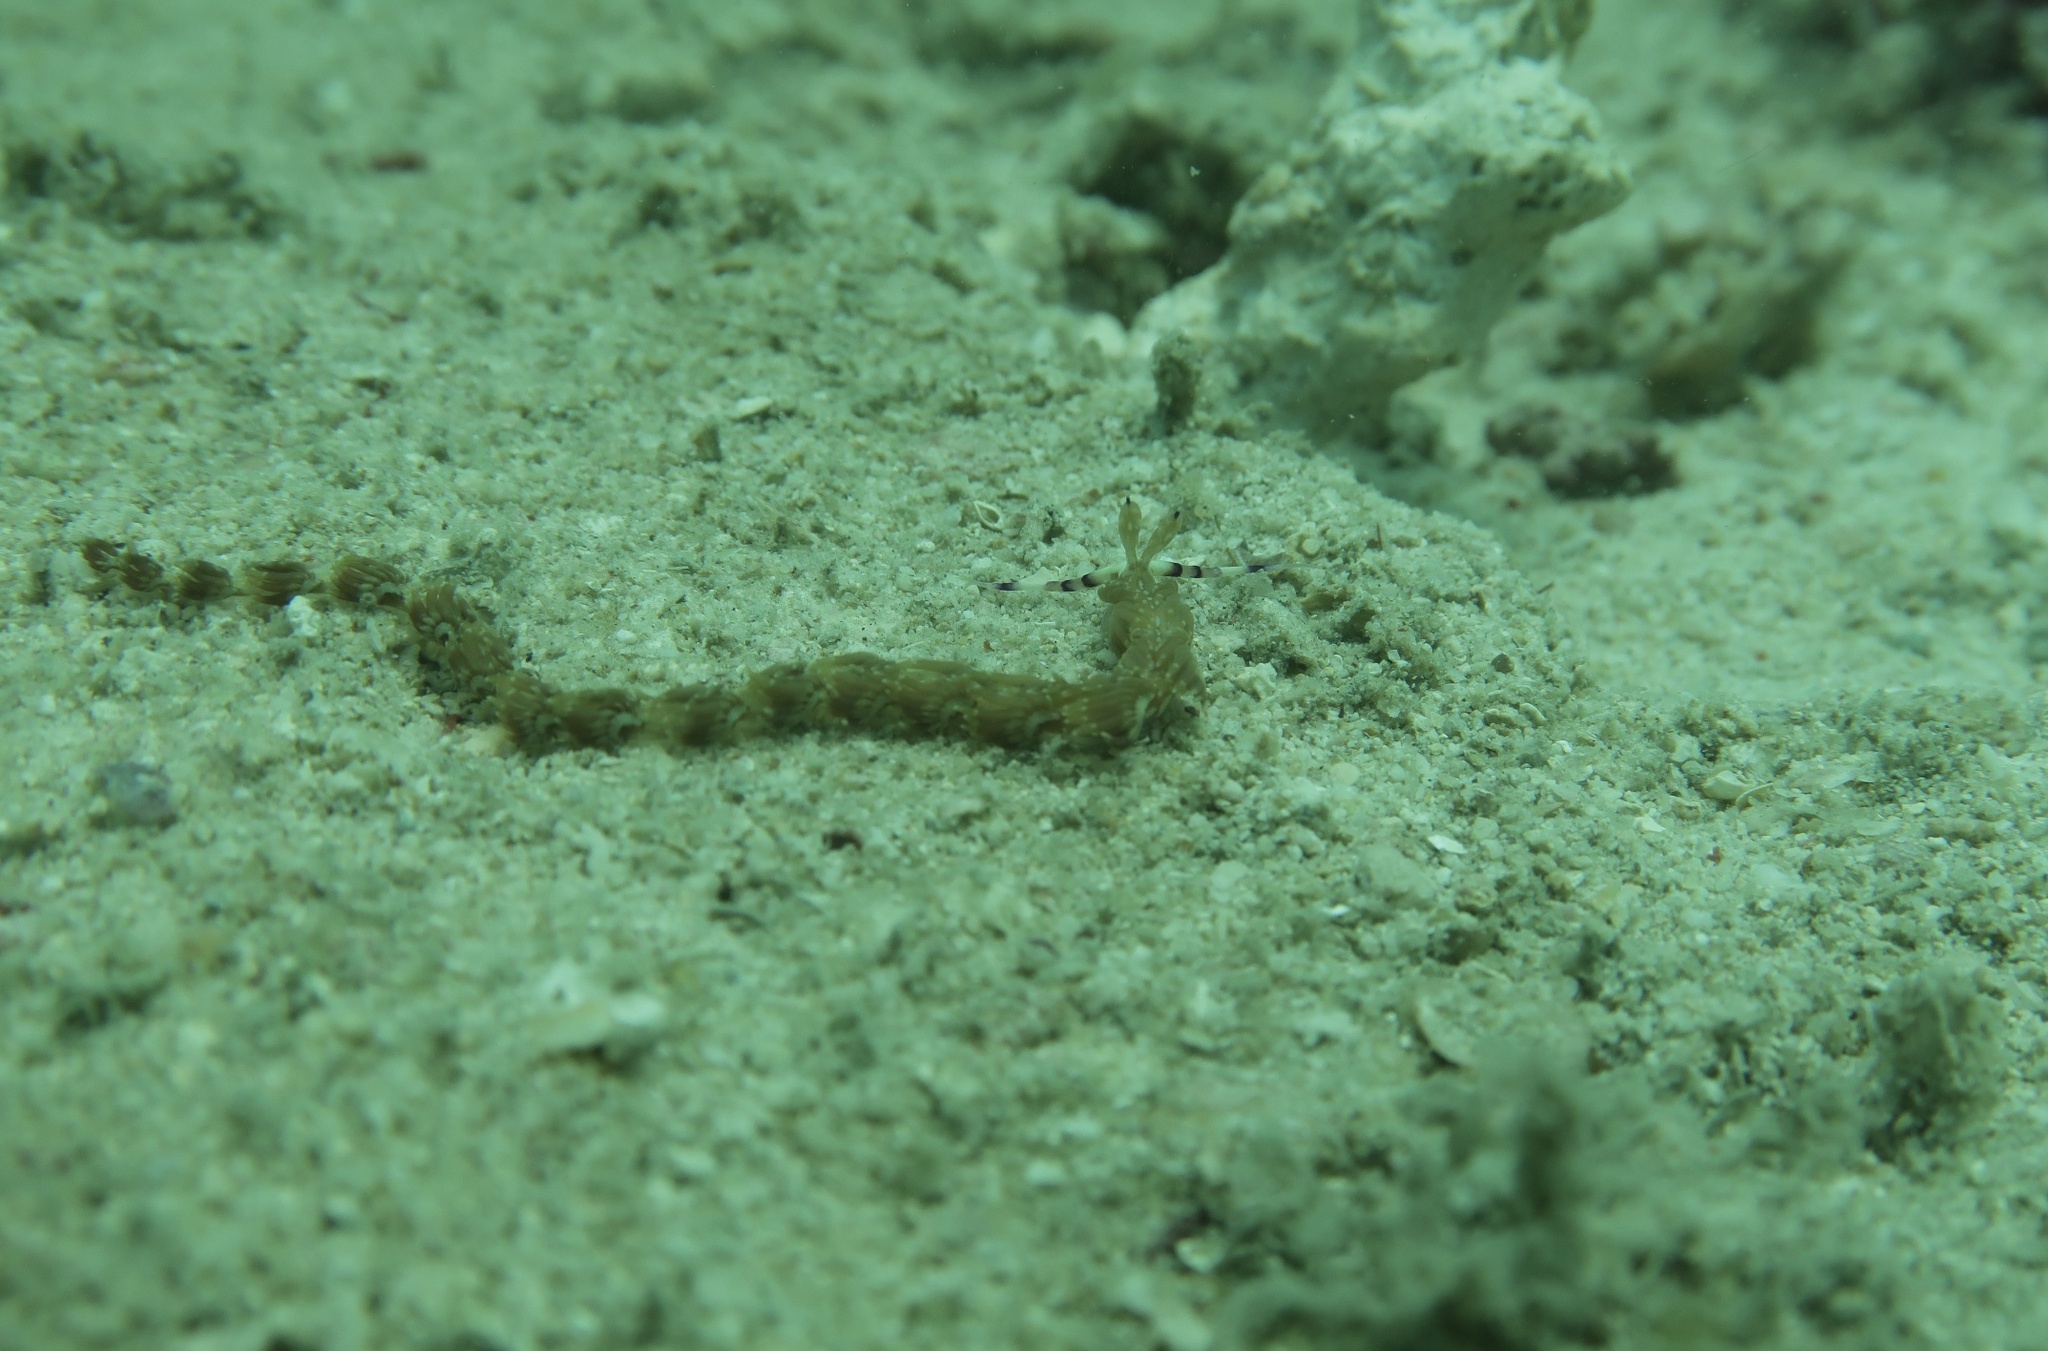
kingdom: Animalia
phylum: Mollusca
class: Gastropoda
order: Nudibranchia
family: Facelinidae
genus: Pteraeolidia
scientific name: Pteraeolidia semperi
